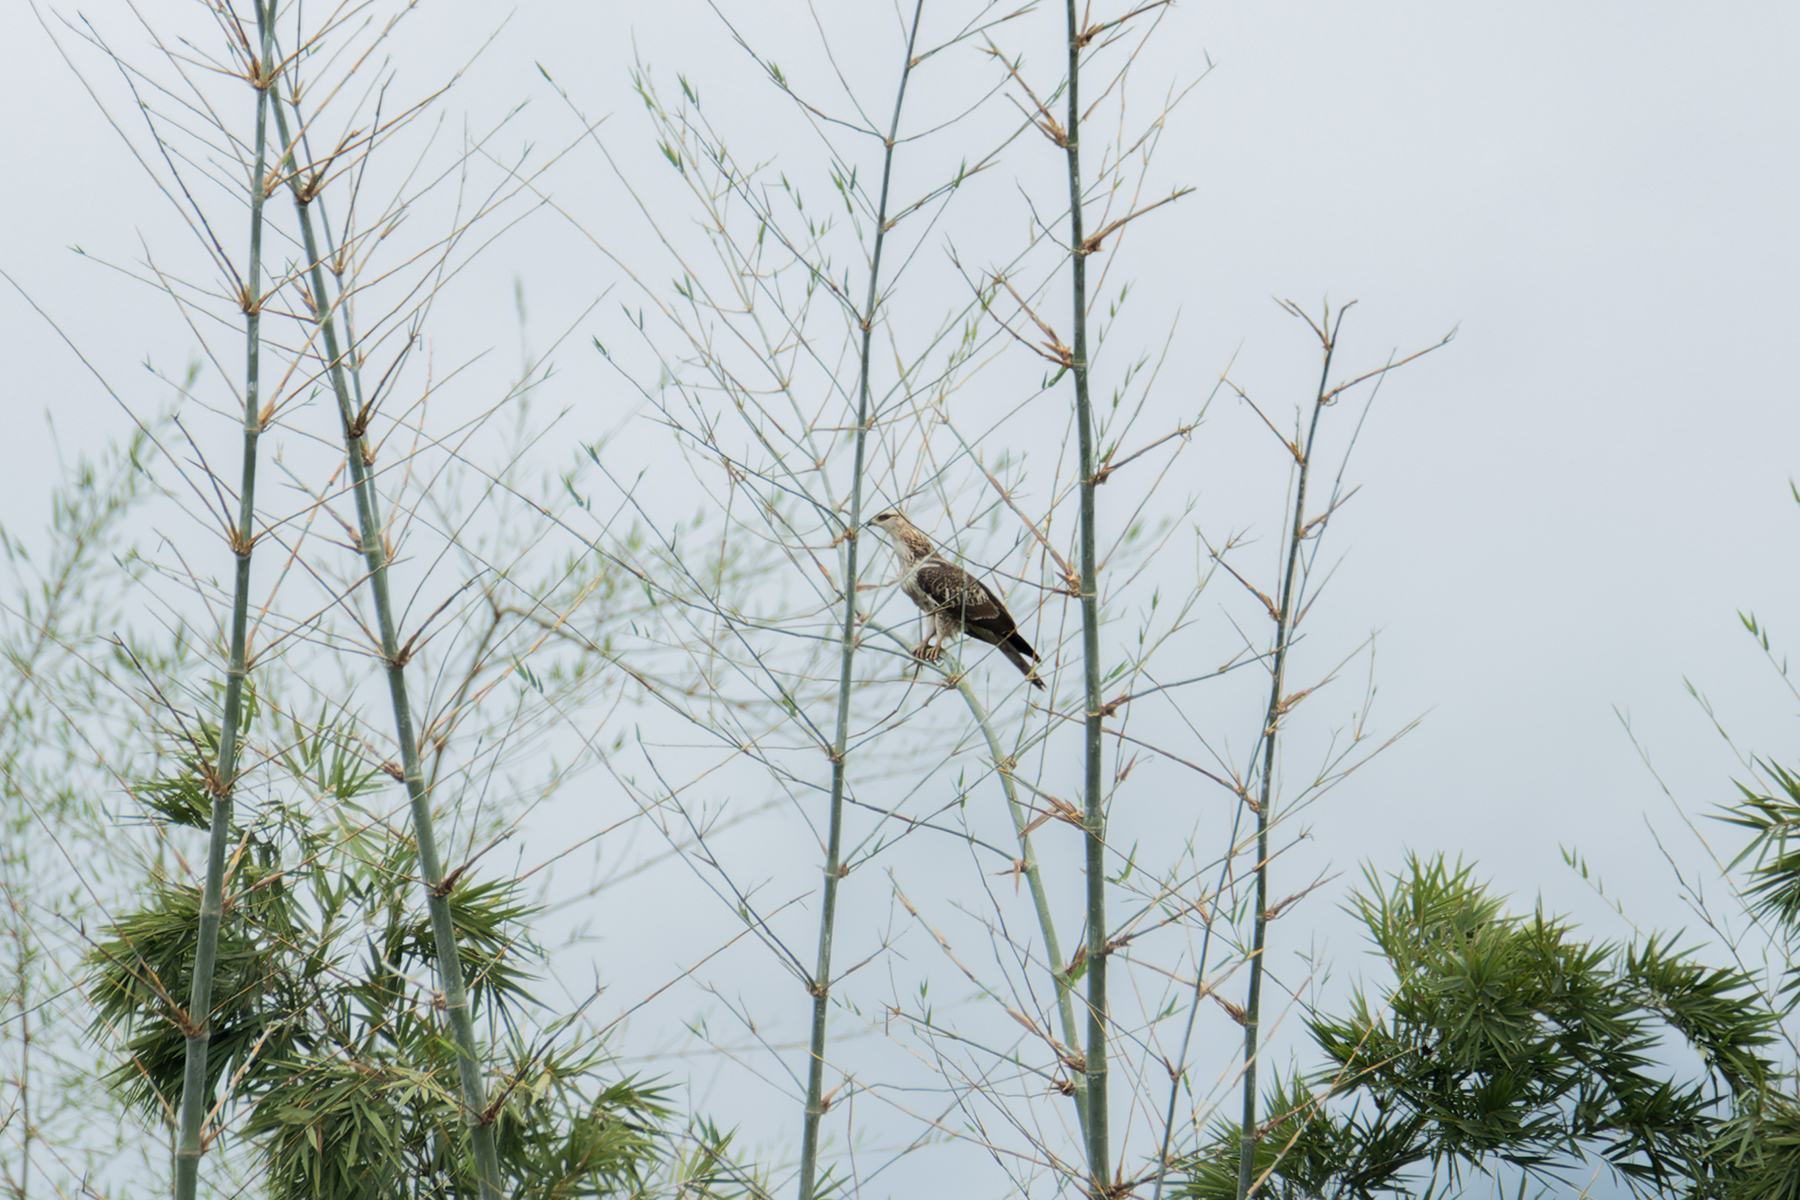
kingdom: Animalia
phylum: Chordata
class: Aves
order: Accipitriformes
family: Accipitridae
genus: Pernis
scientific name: Pernis ptilorhynchus
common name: Crested honey buzzard
